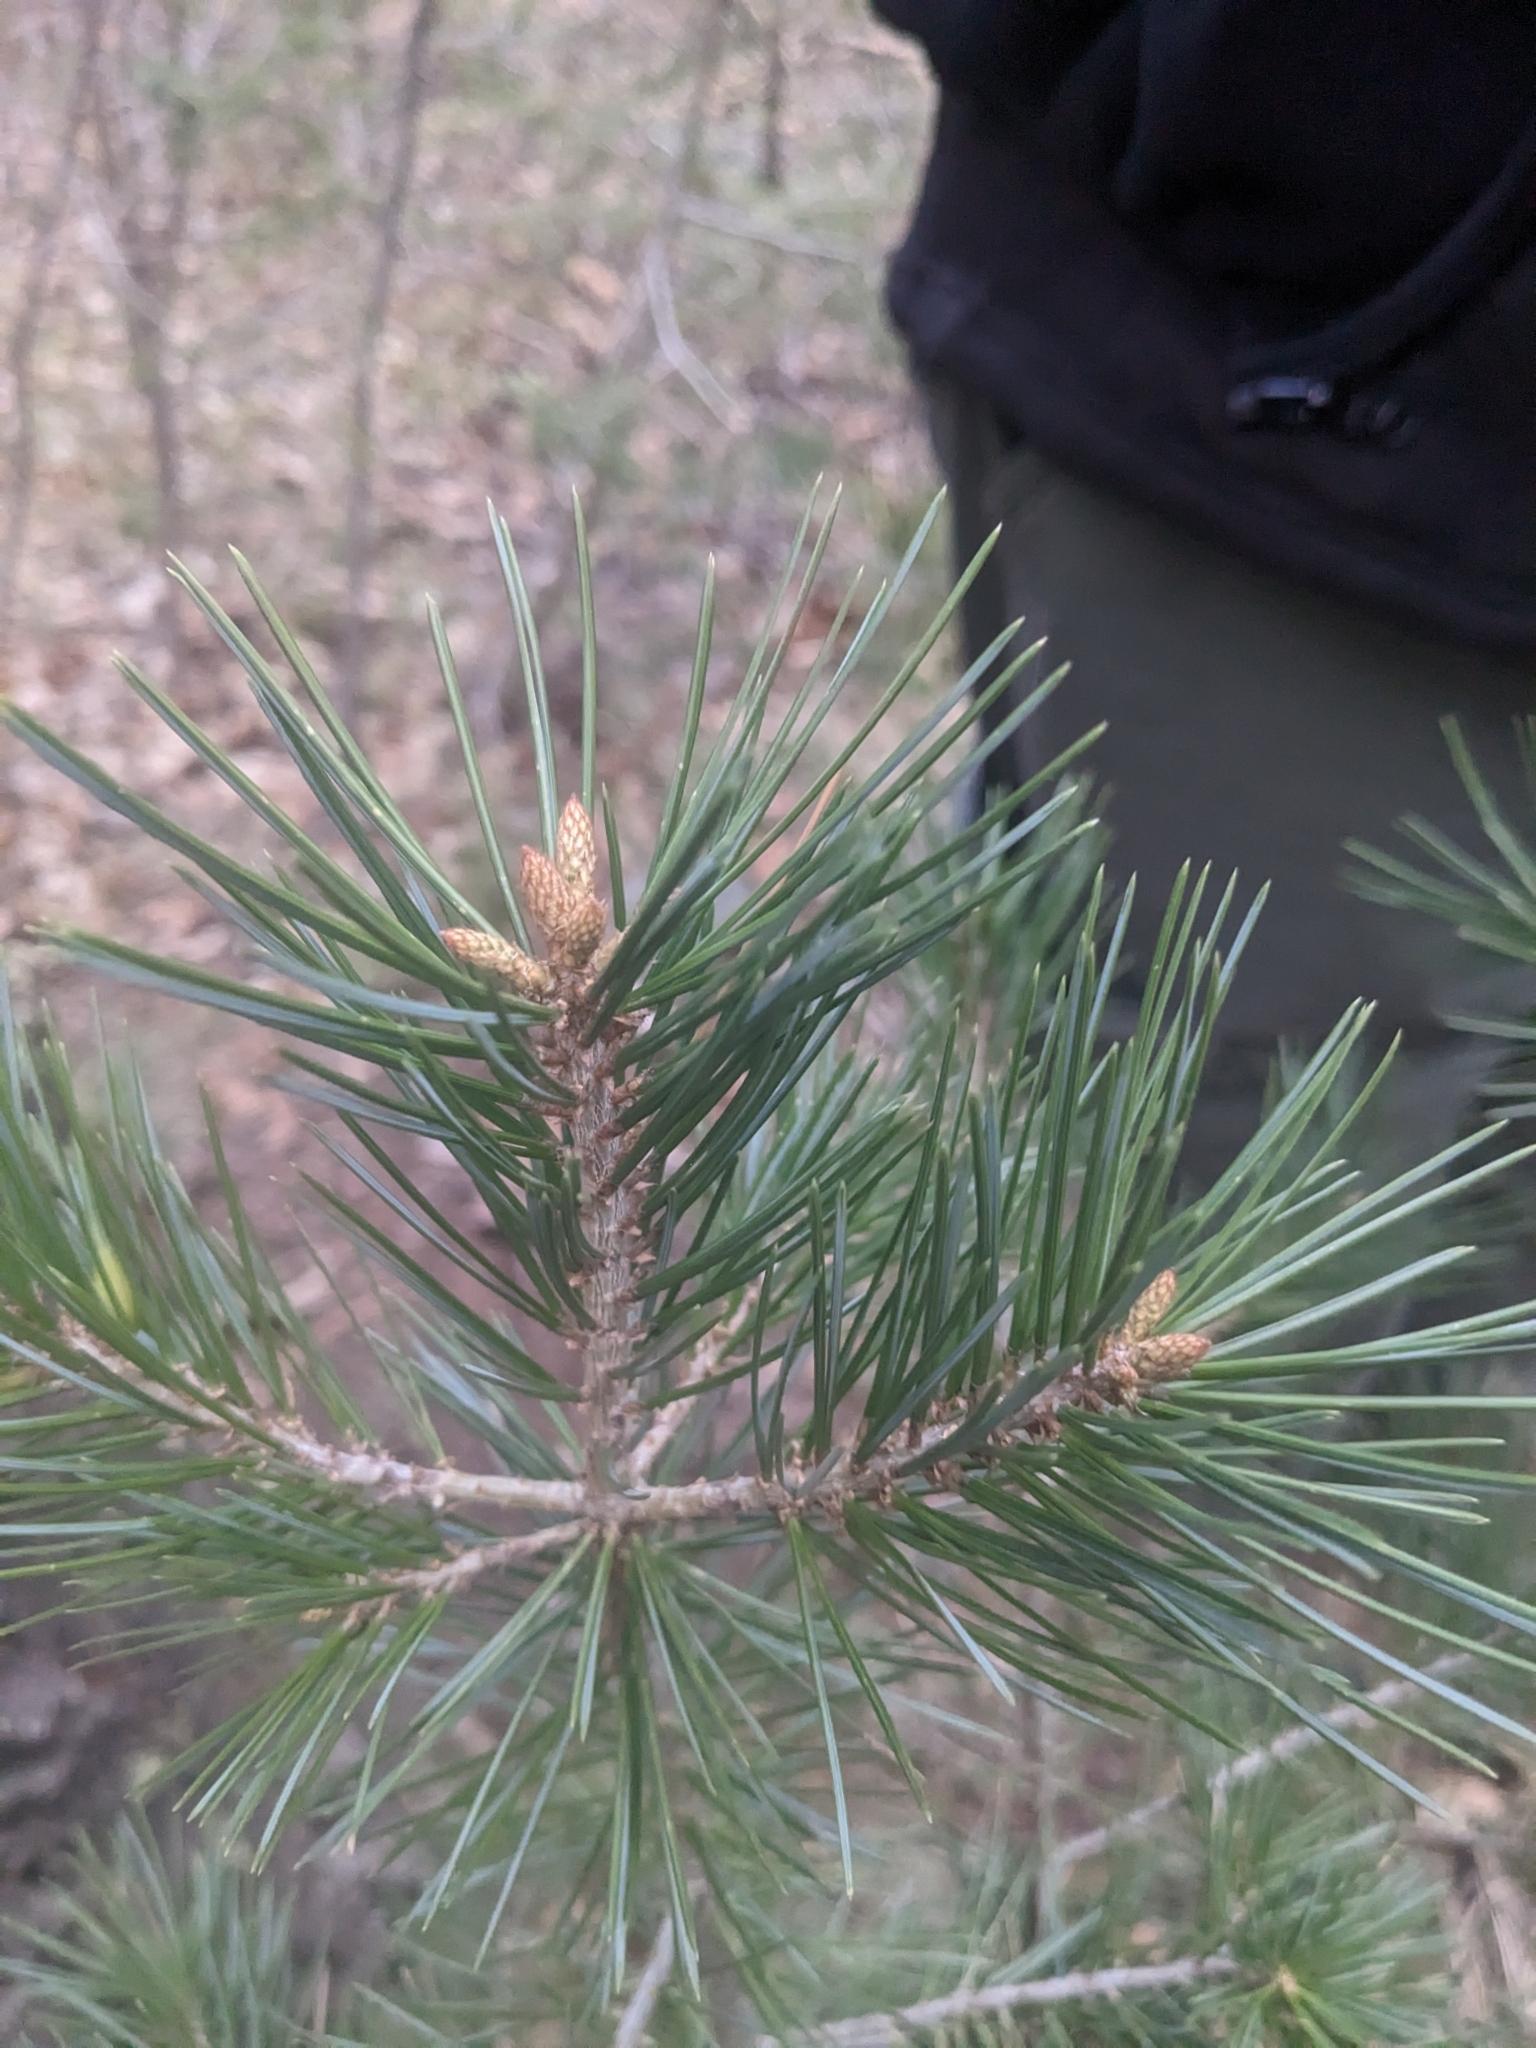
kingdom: Plantae
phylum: Tracheophyta
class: Pinopsida
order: Pinales
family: Pinaceae
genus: Pinus
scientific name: Pinus edulis
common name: Colorado pinyon
